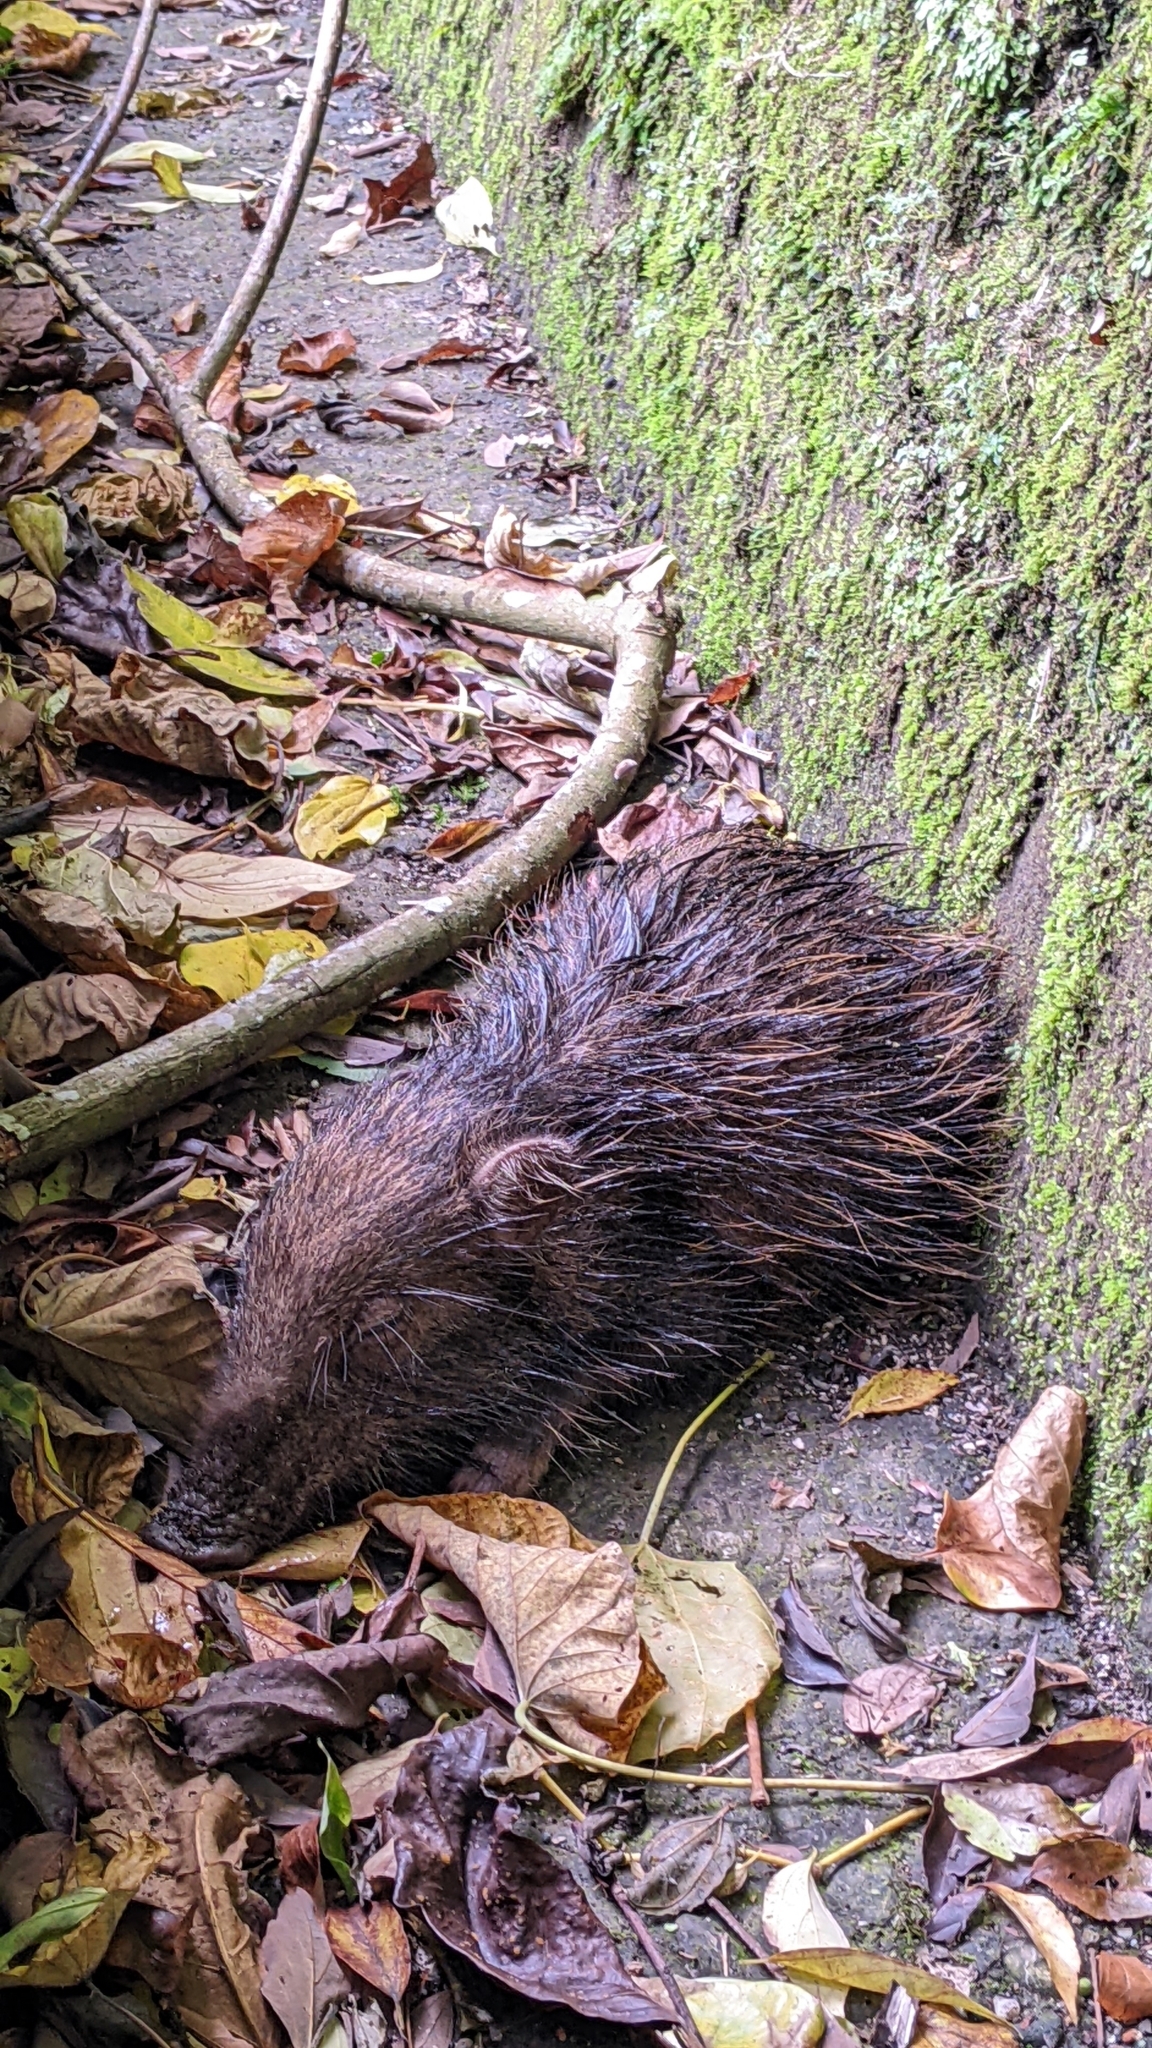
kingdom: Animalia
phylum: Chordata
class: Mammalia
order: Artiodactyla
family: Suidae
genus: Sus
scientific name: Sus scrofa
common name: Wild boar
